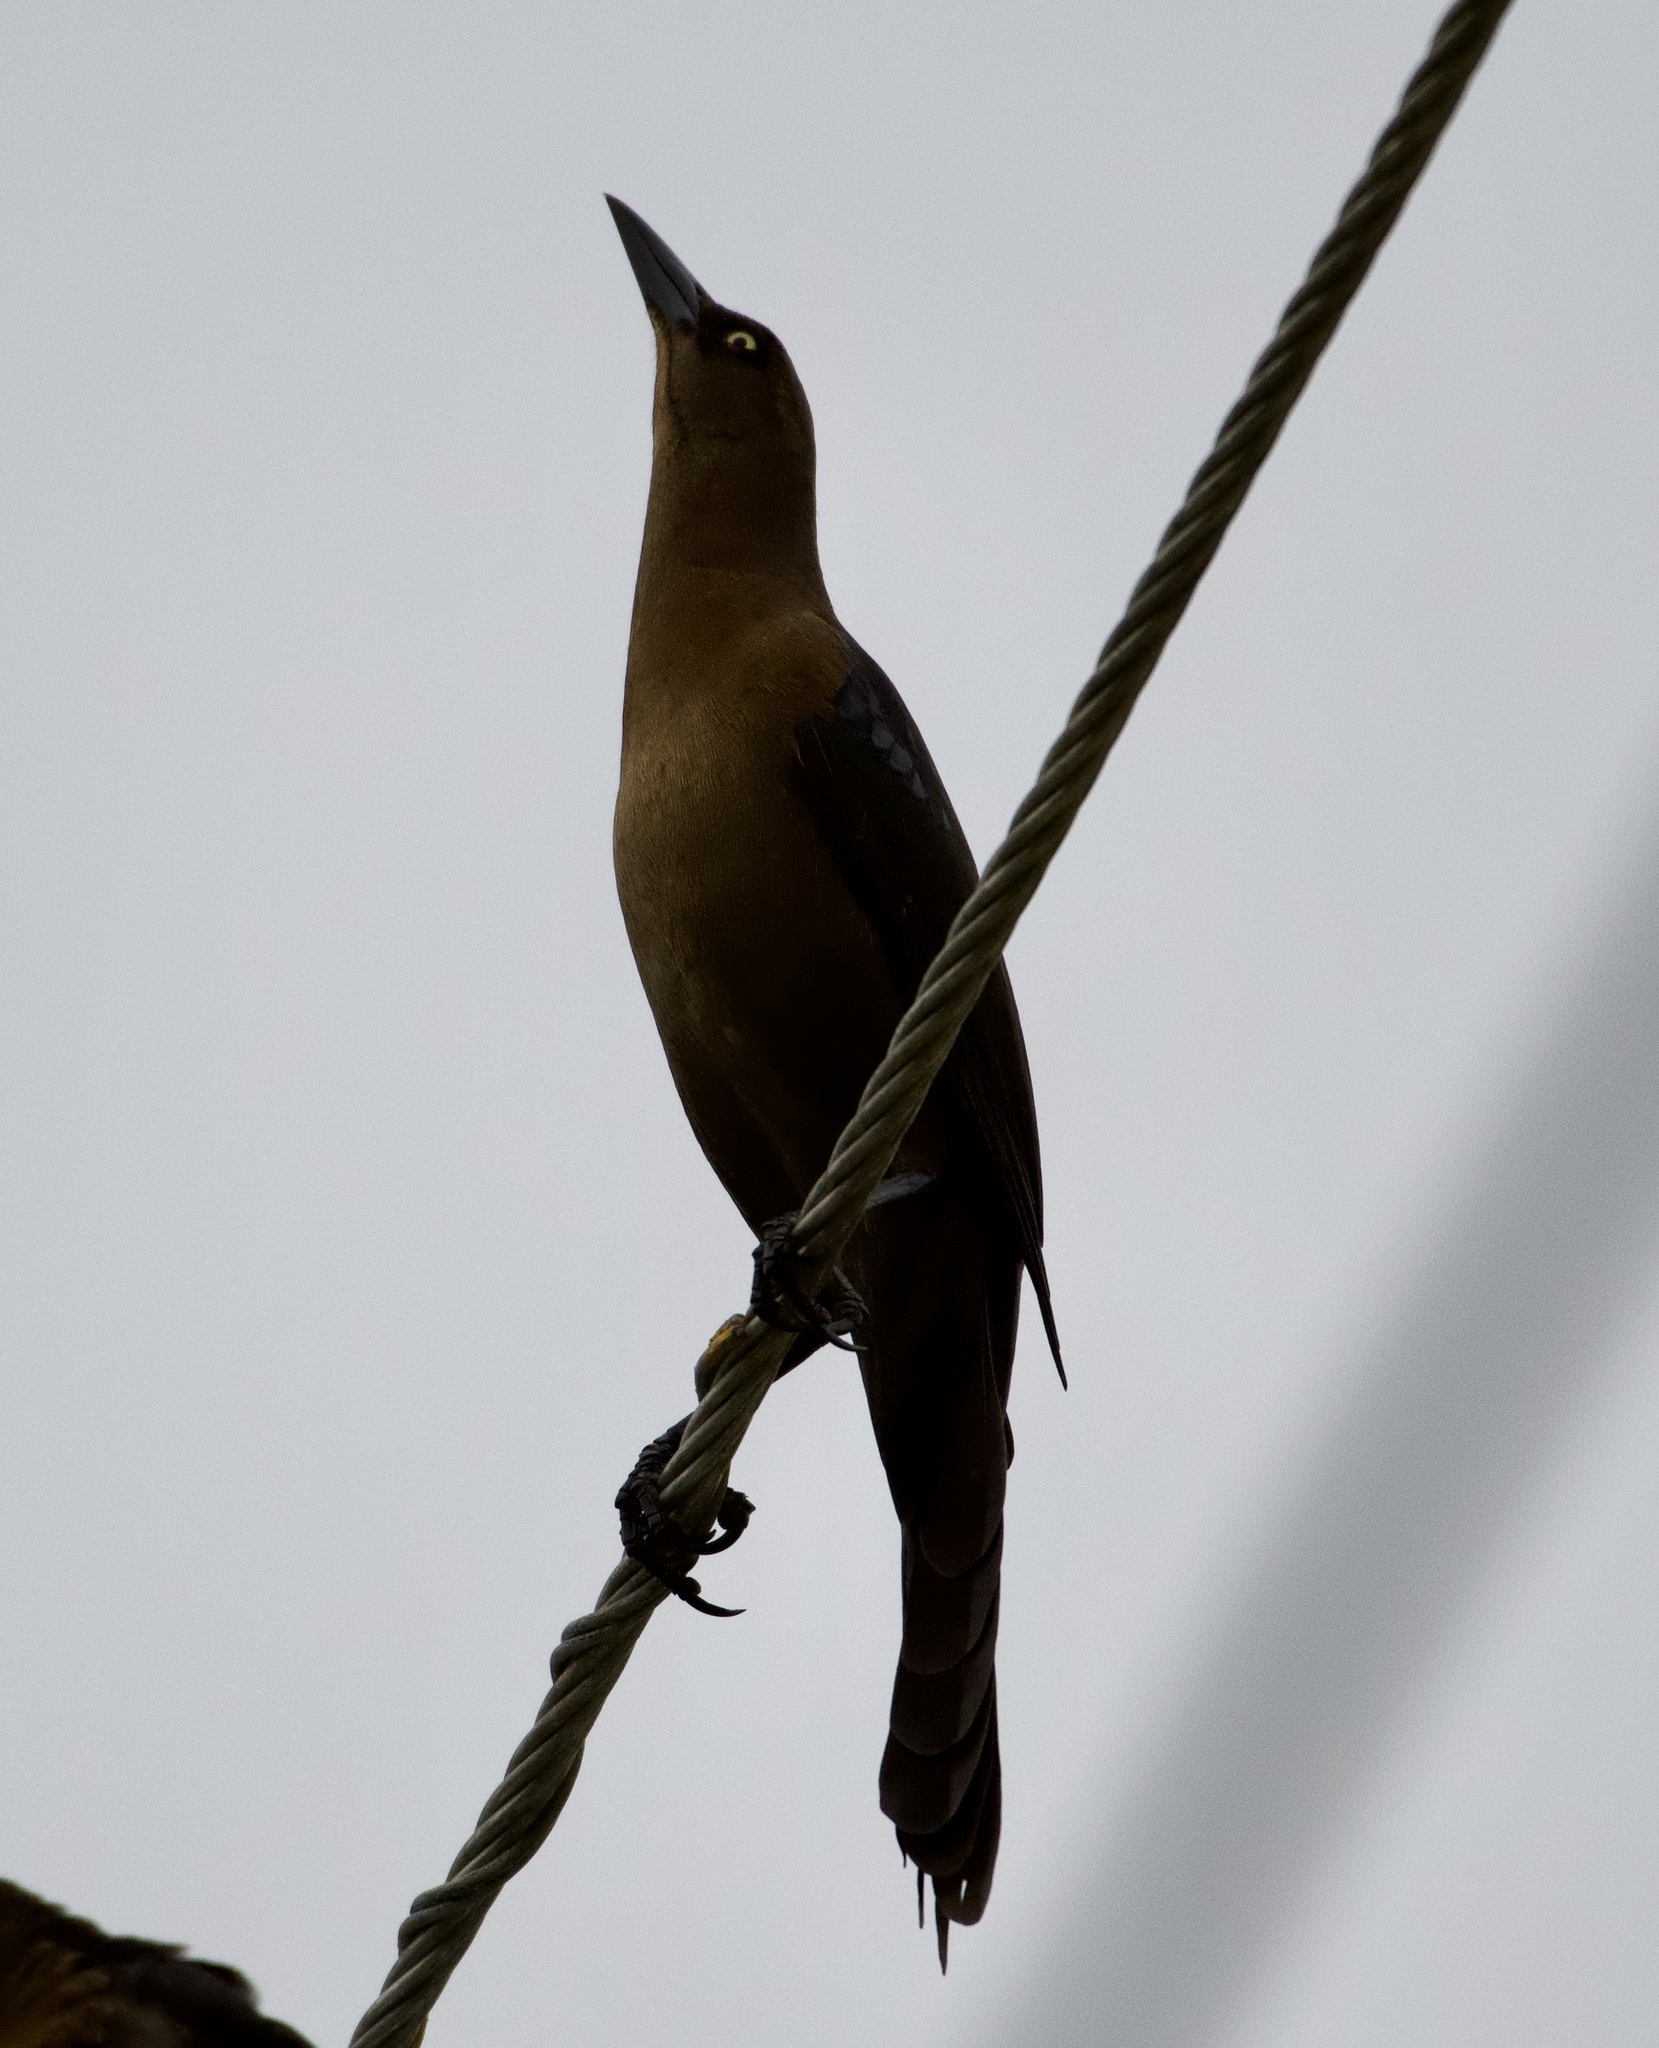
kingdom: Animalia
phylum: Chordata
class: Aves
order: Passeriformes
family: Icteridae
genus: Quiscalus
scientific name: Quiscalus mexicanus
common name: Great-tailed grackle
